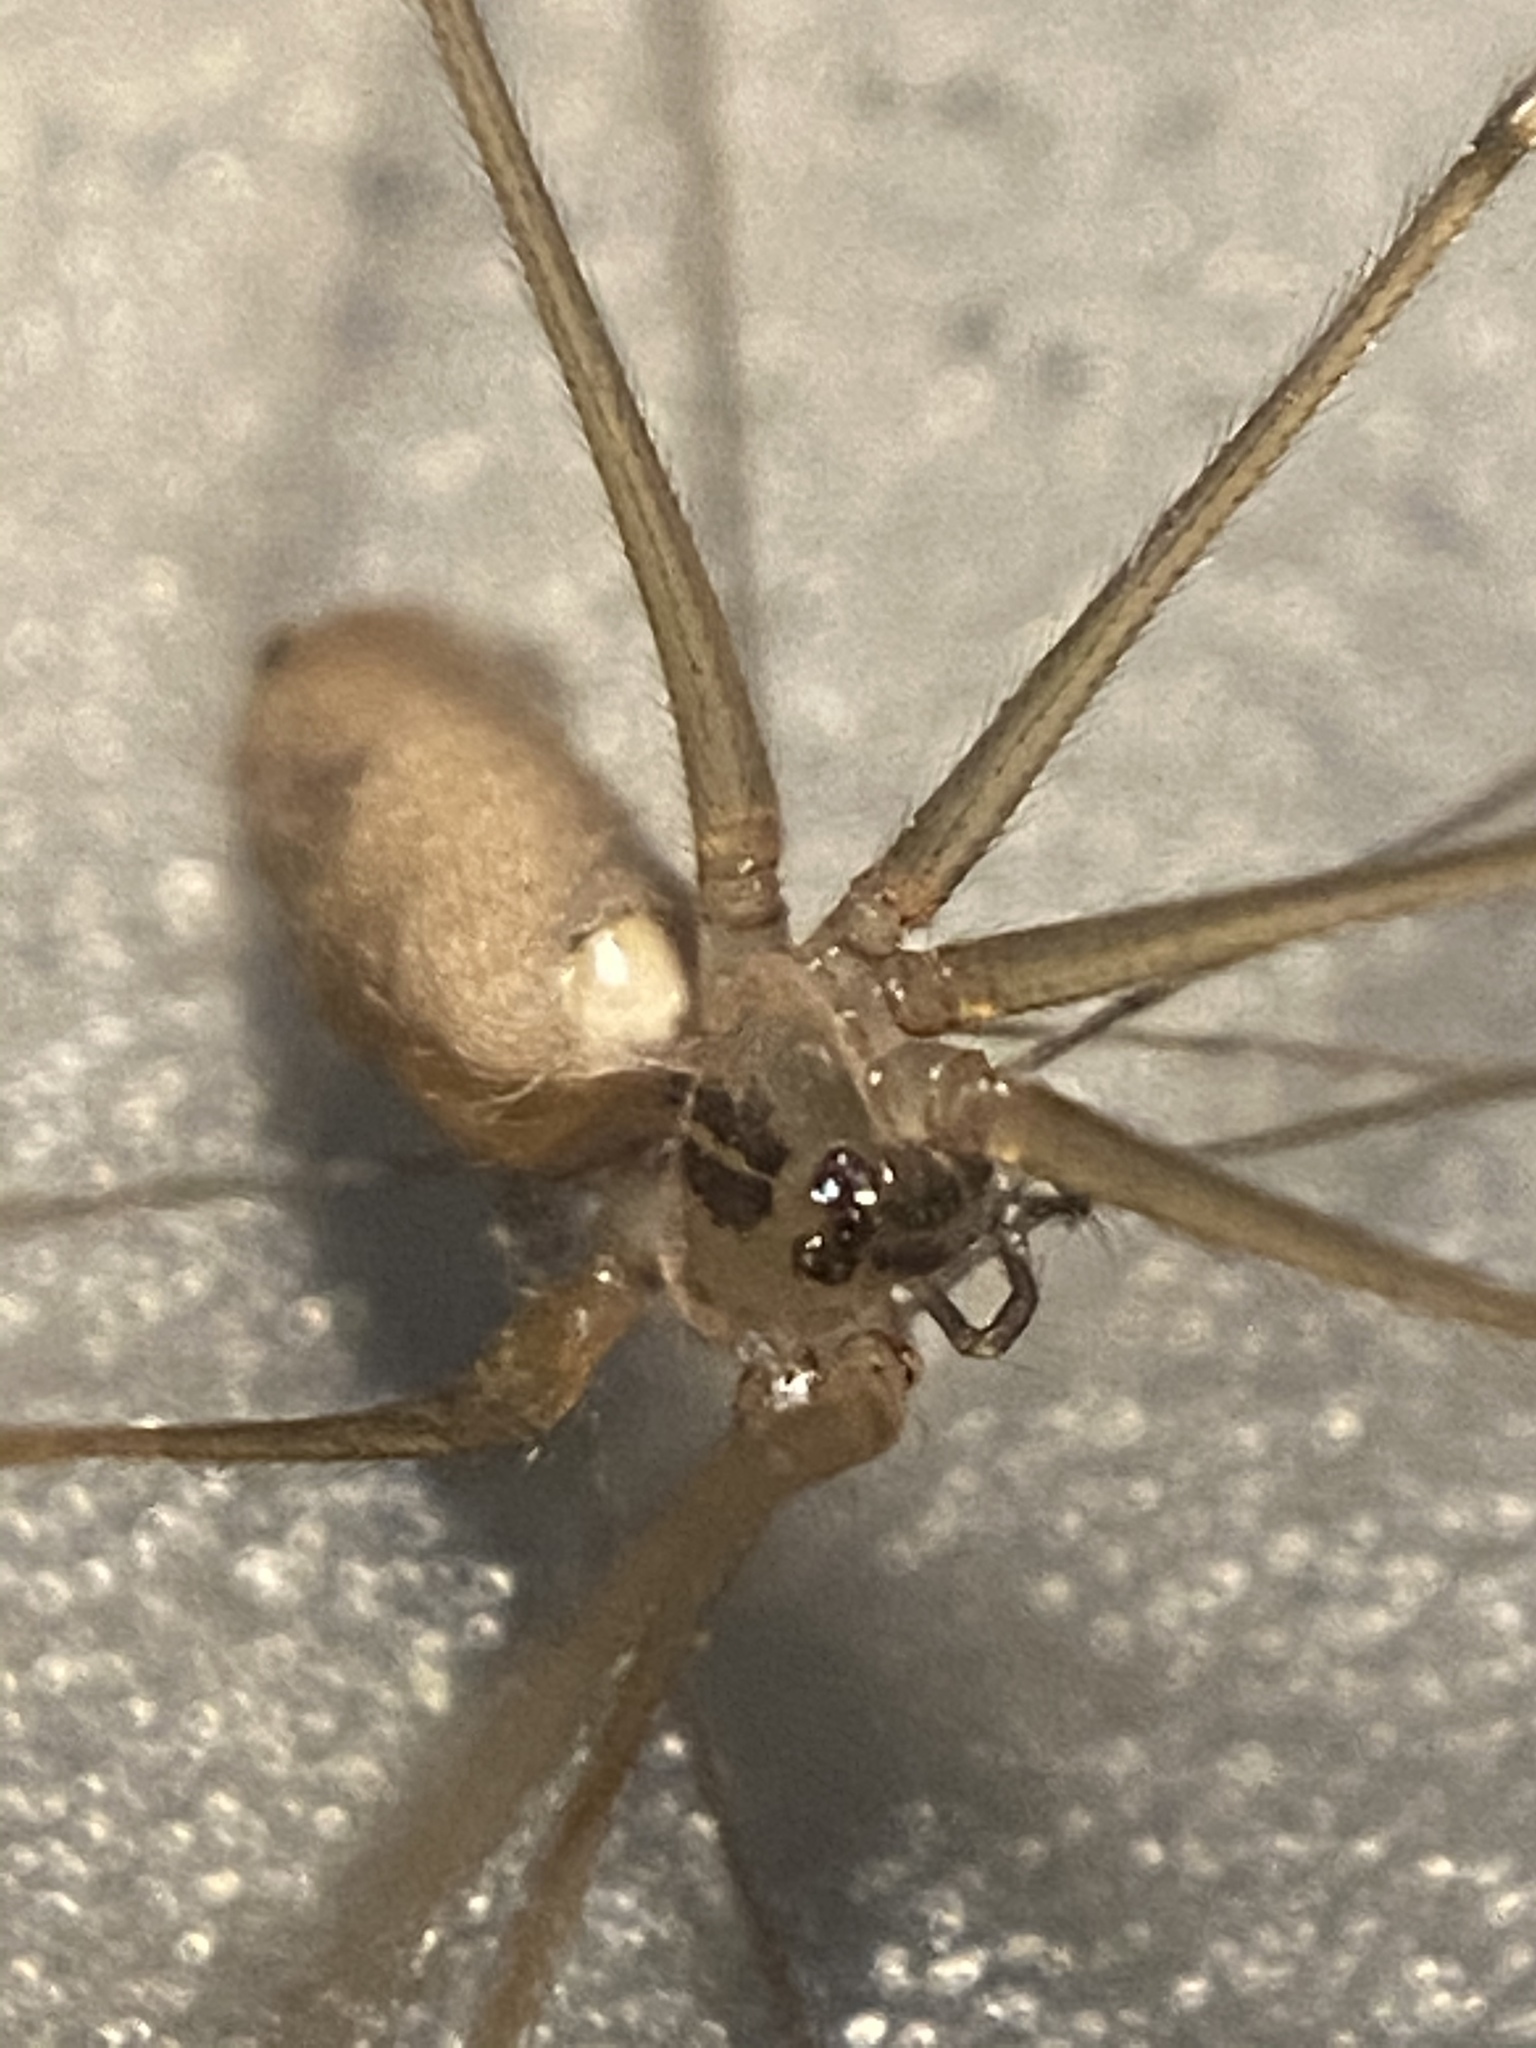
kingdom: Animalia
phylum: Arthropoda
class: Arachnida
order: Araneae
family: Pholcidae
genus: Pholcus
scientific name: Pholcus manueli
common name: Cellar spider
